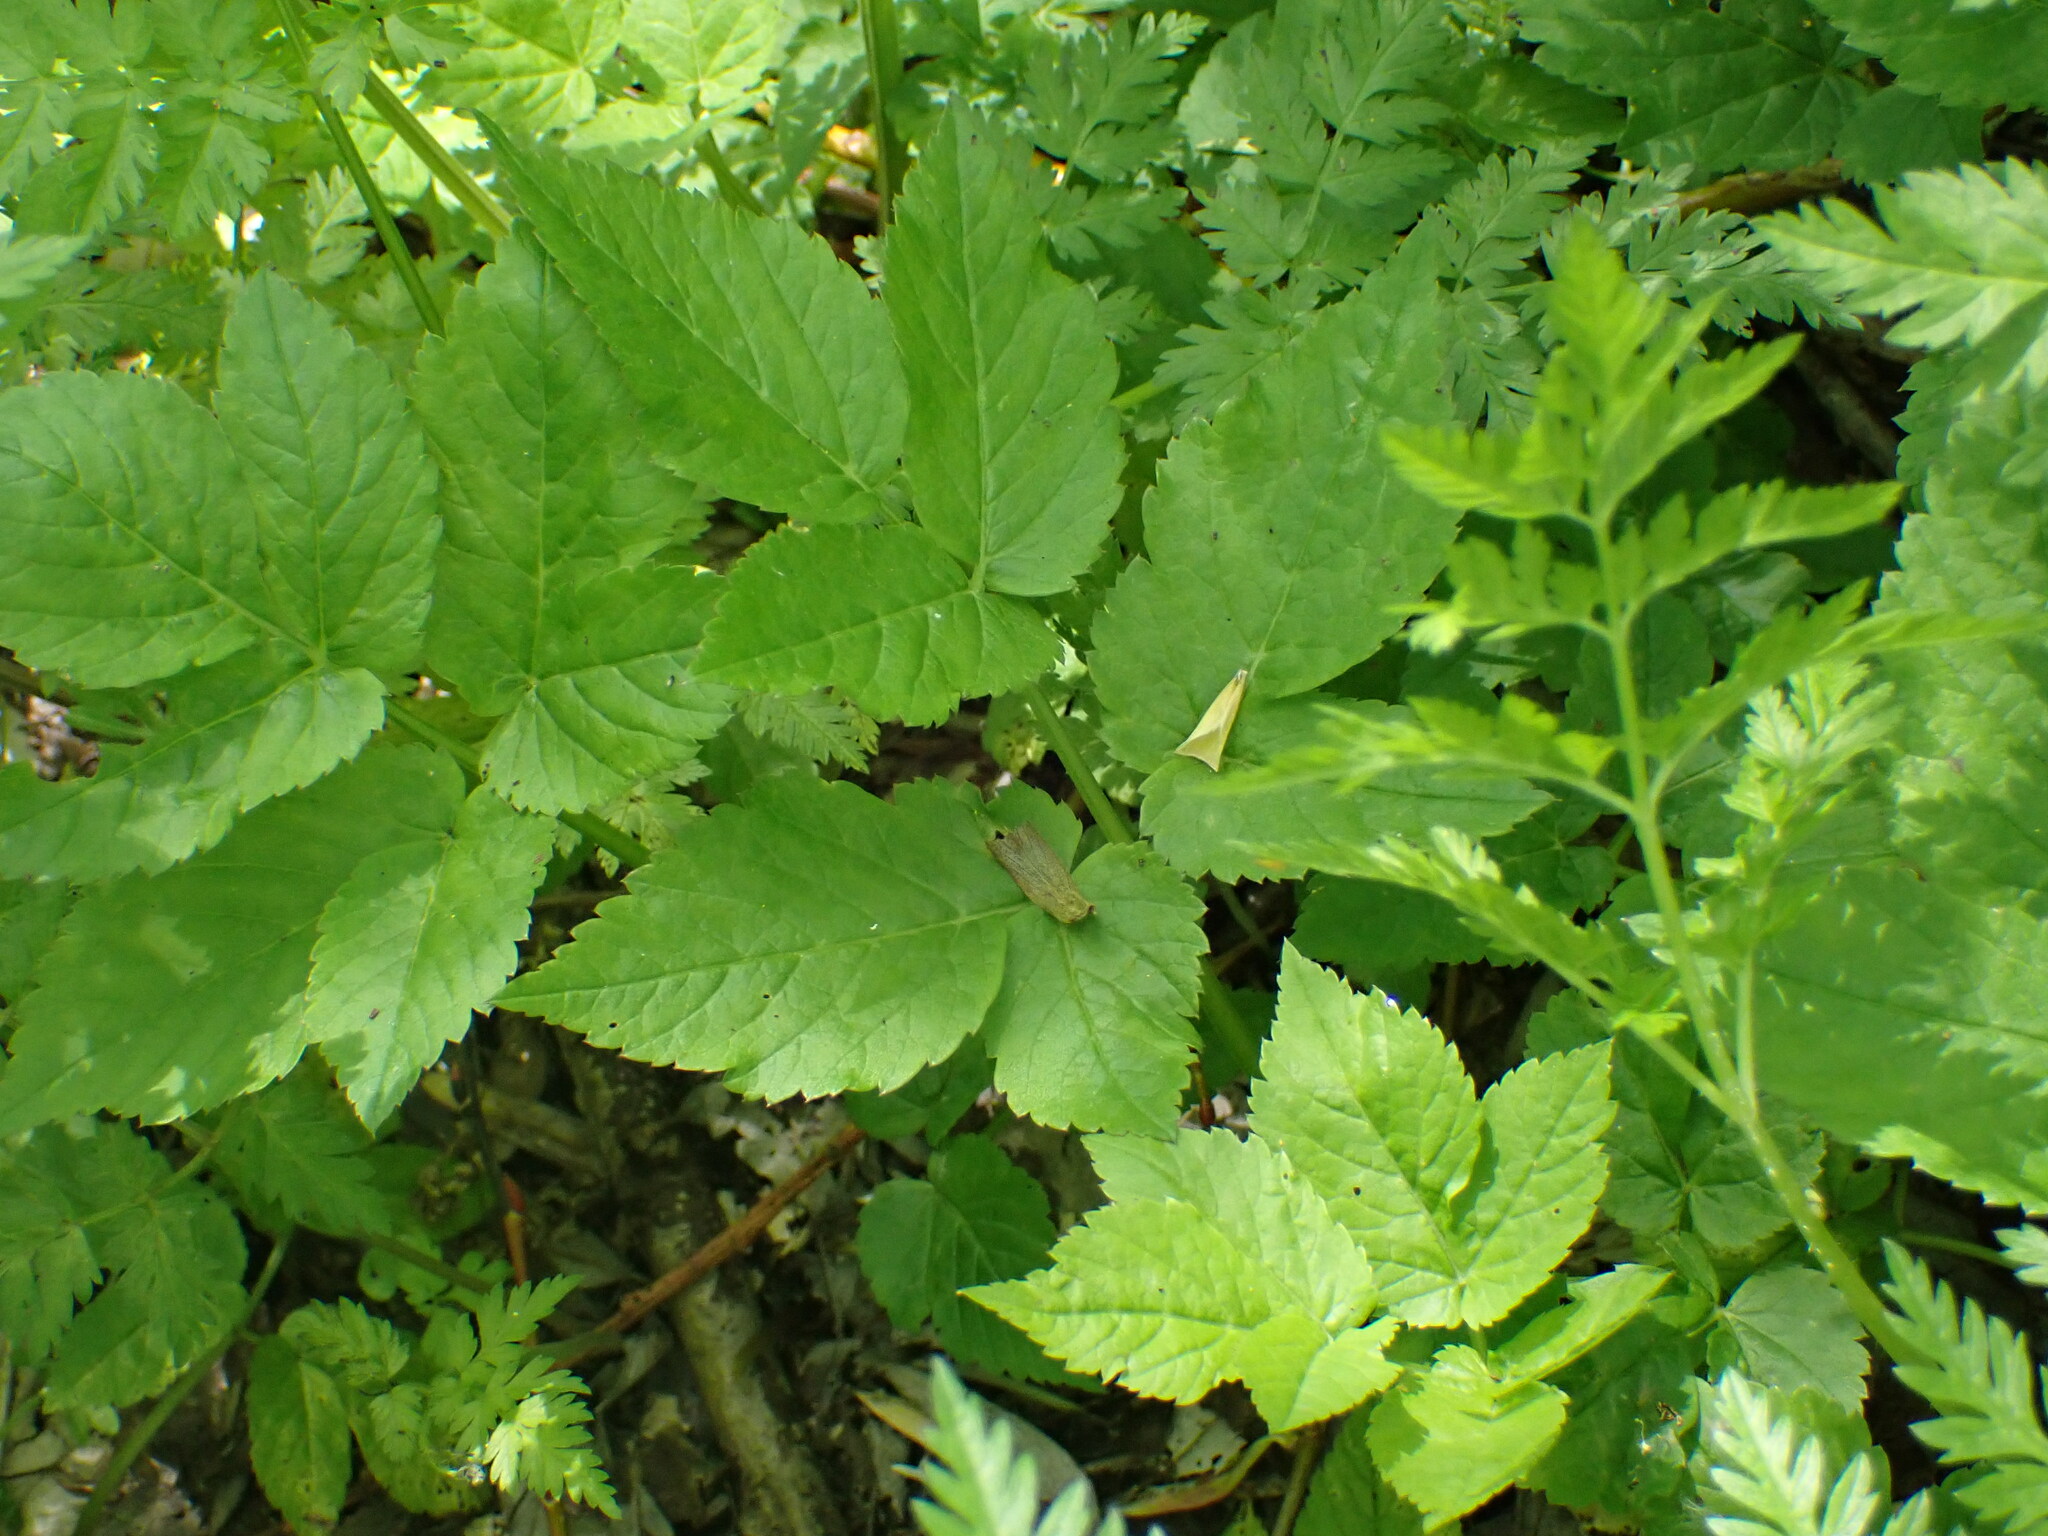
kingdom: Plantae
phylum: Tracheophyta
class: Magnoliopsida
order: Apiales
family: Apiaceae
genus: Aegopodium
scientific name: Aegopodium podagraria
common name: Ground-elder
